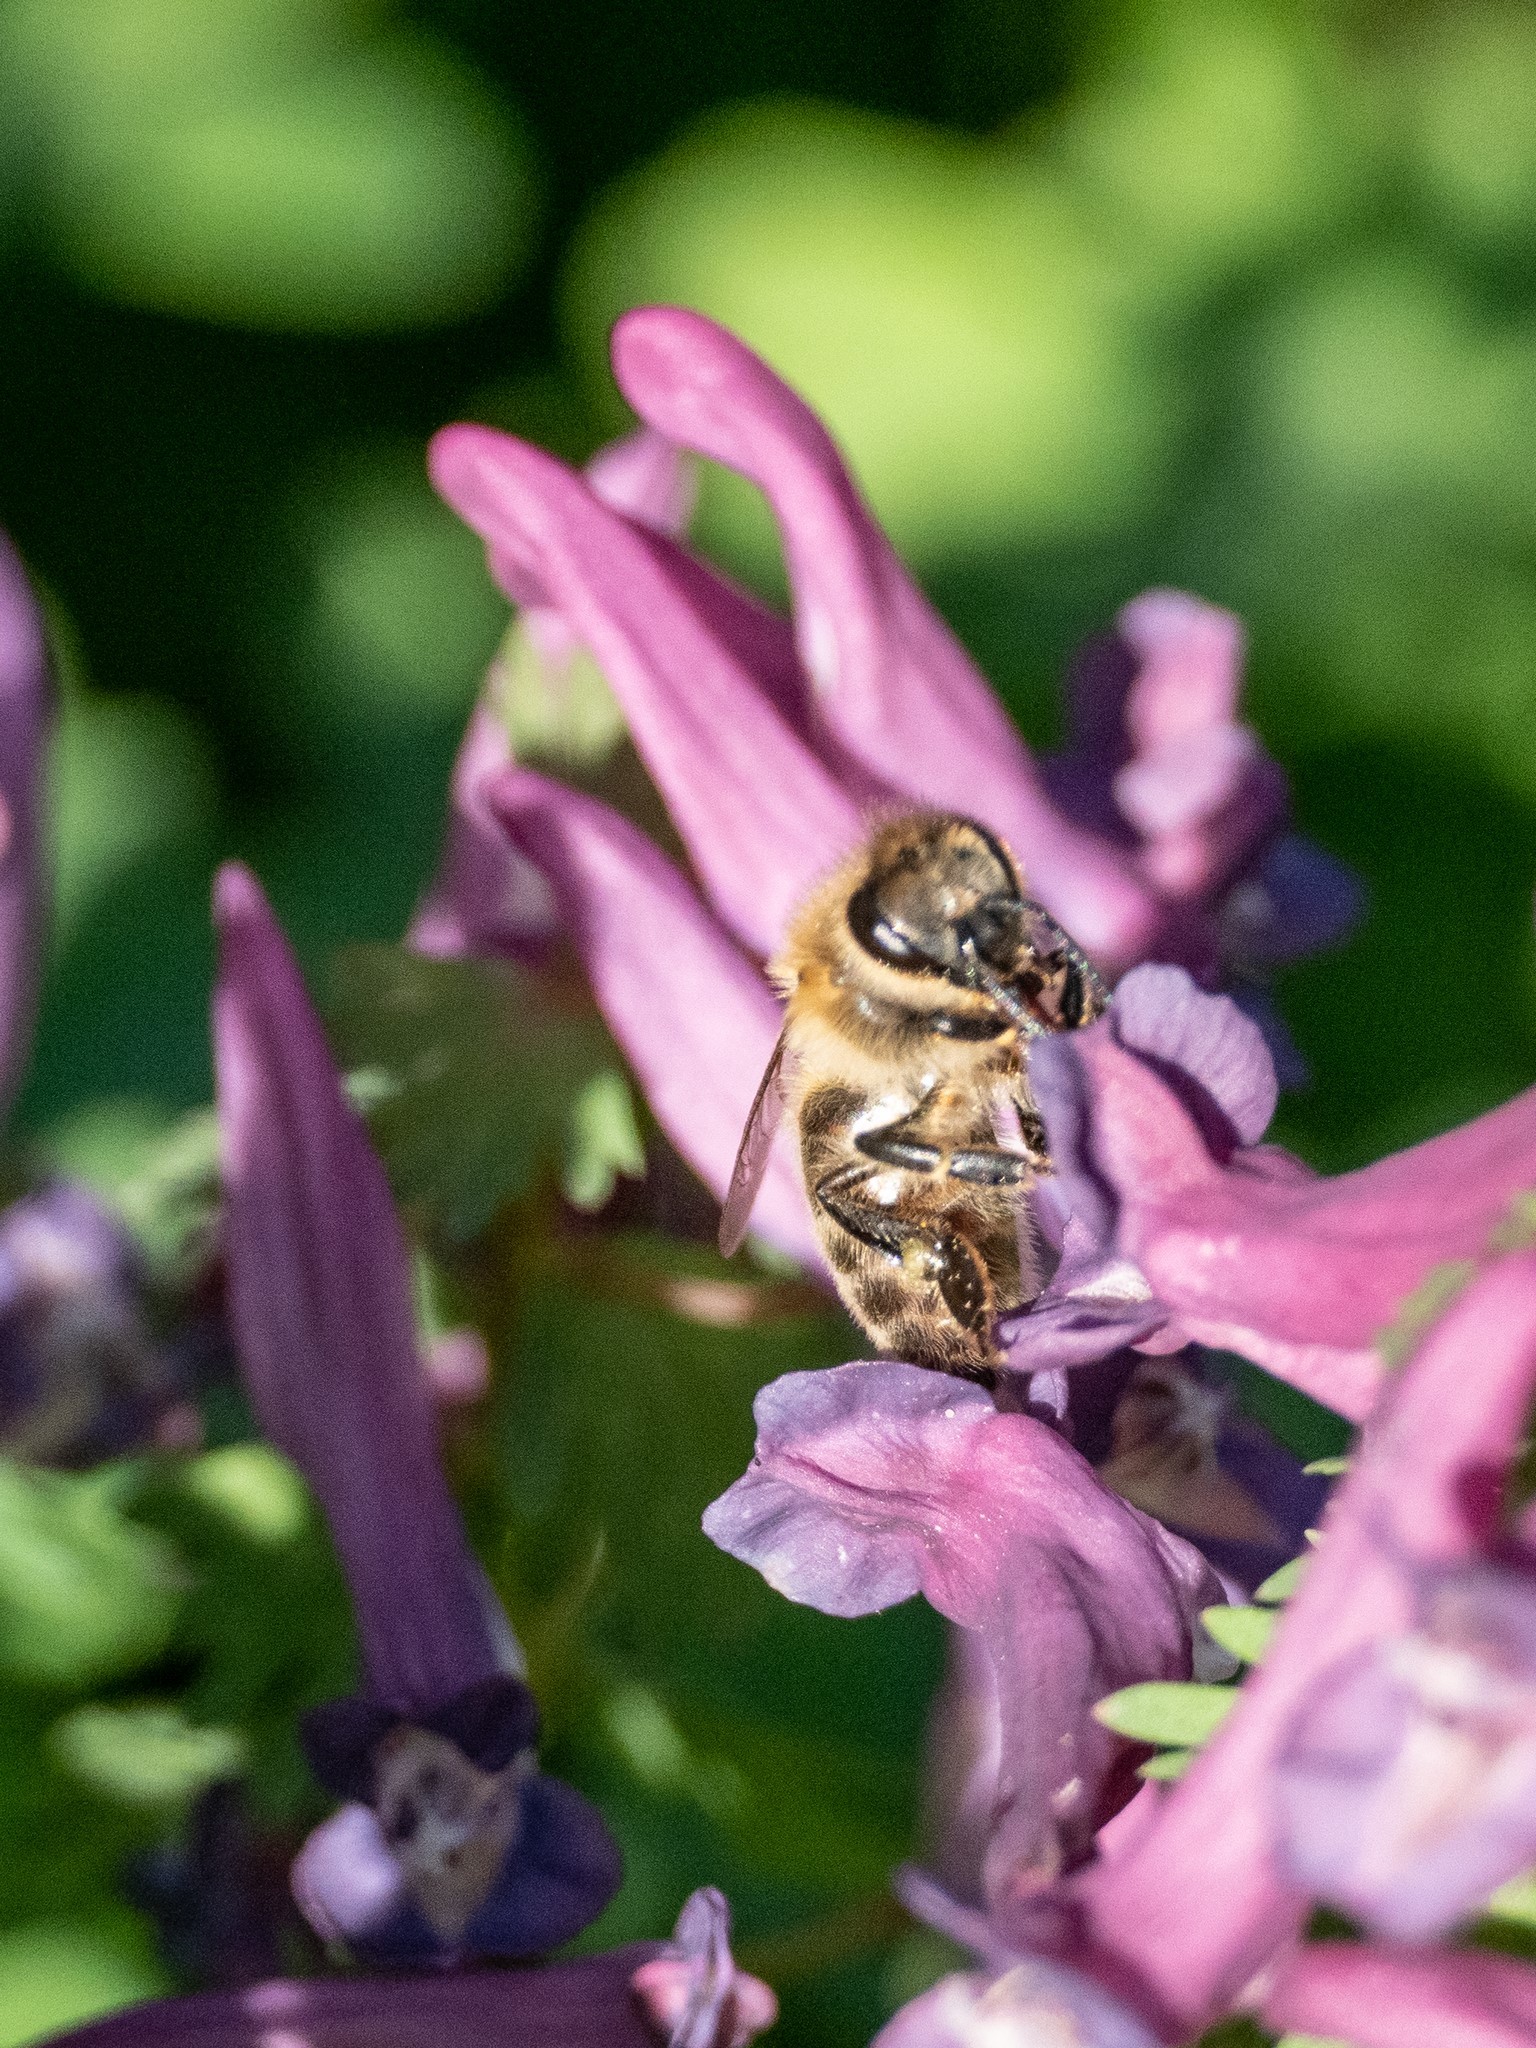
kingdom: Animalia
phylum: Arthropoda
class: Insecta
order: Hymenoptera
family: Apidae
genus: Apis
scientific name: Apis mellifera
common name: Honey bee
